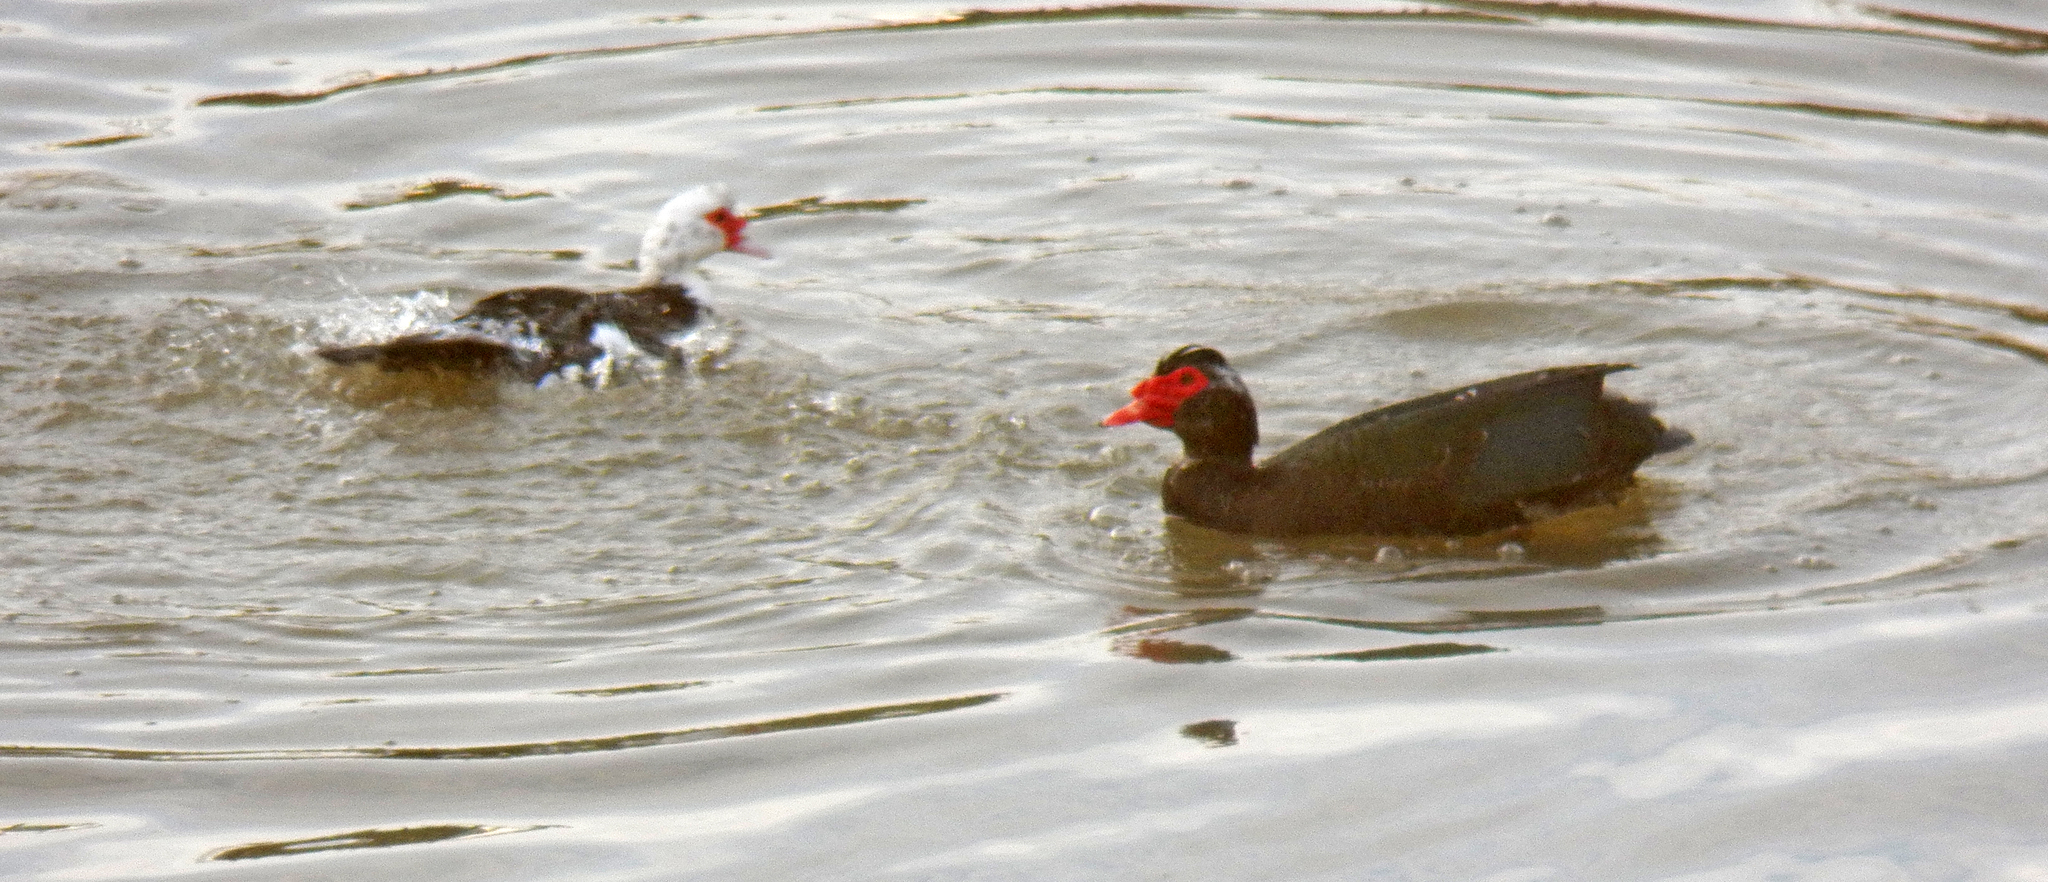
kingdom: Animalia
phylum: Chordata
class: Aves
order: Anseriformes
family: Anatidae
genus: Cairina
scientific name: Cairina moschata
